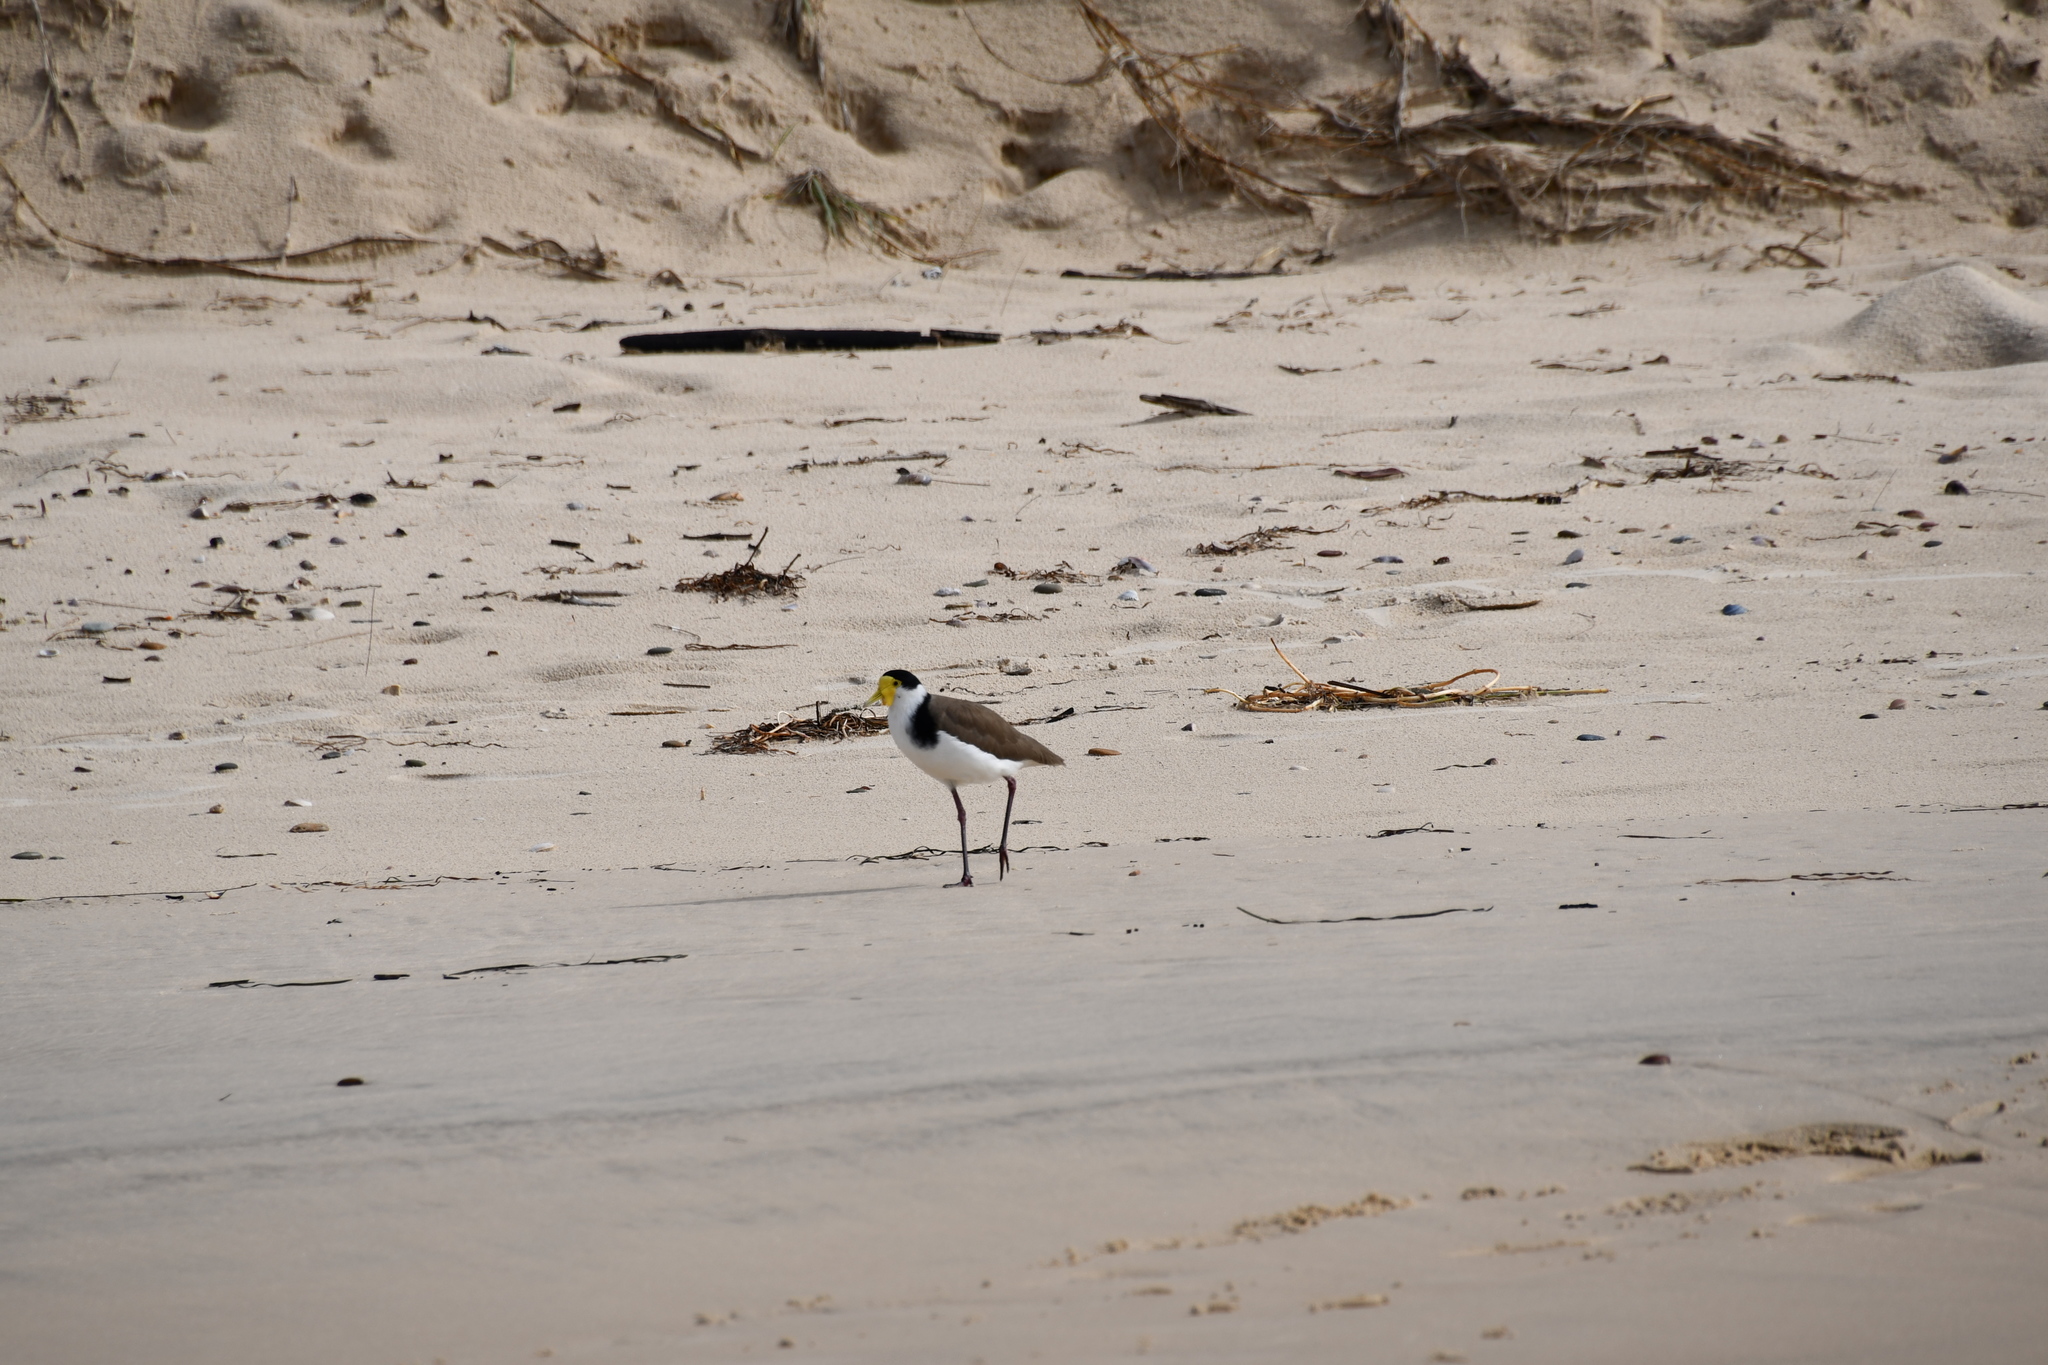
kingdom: Animalia
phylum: Chordata
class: Aves
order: Charadriiformes
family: Charadriidae
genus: Vanellus
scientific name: Vanellus miles
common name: Masked lapwing
